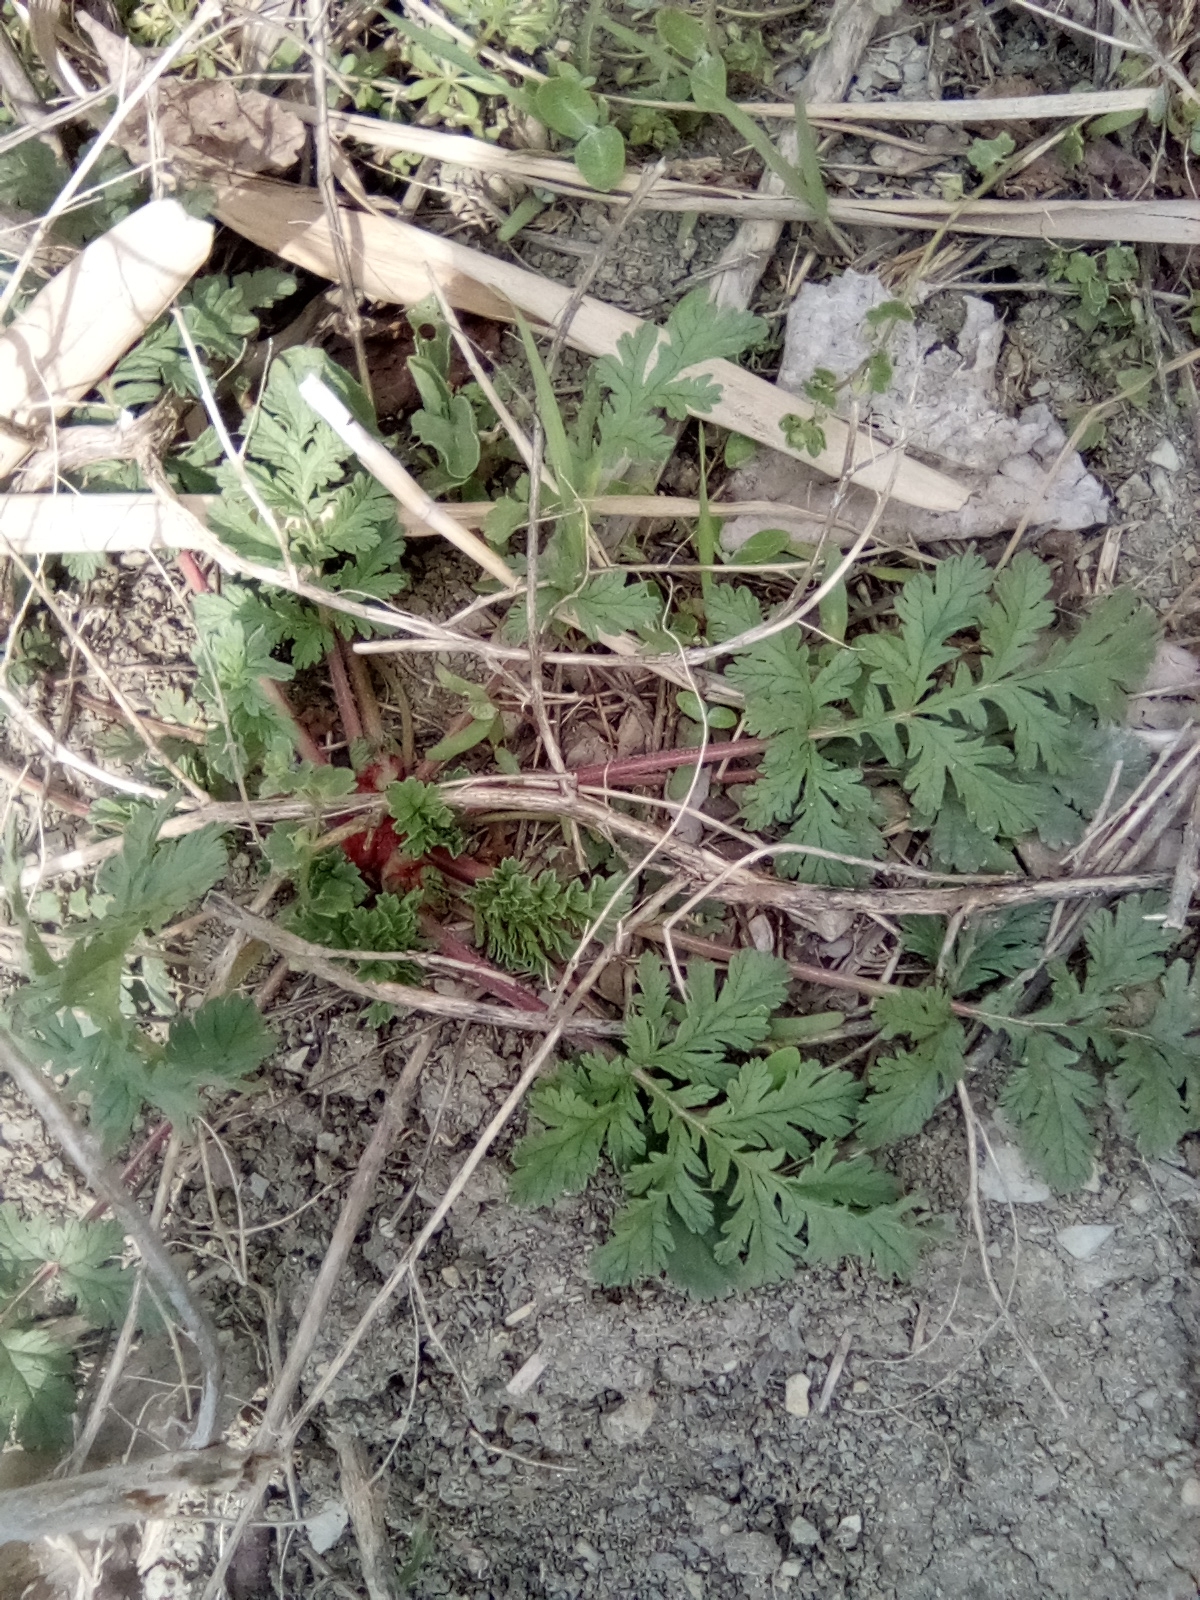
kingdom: Plantae
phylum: Tracheophyta
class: Magnoliopsida
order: Geraniales
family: Geraniaceae
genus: Erodium
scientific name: Erodium ciconium
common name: Common stork's bill
